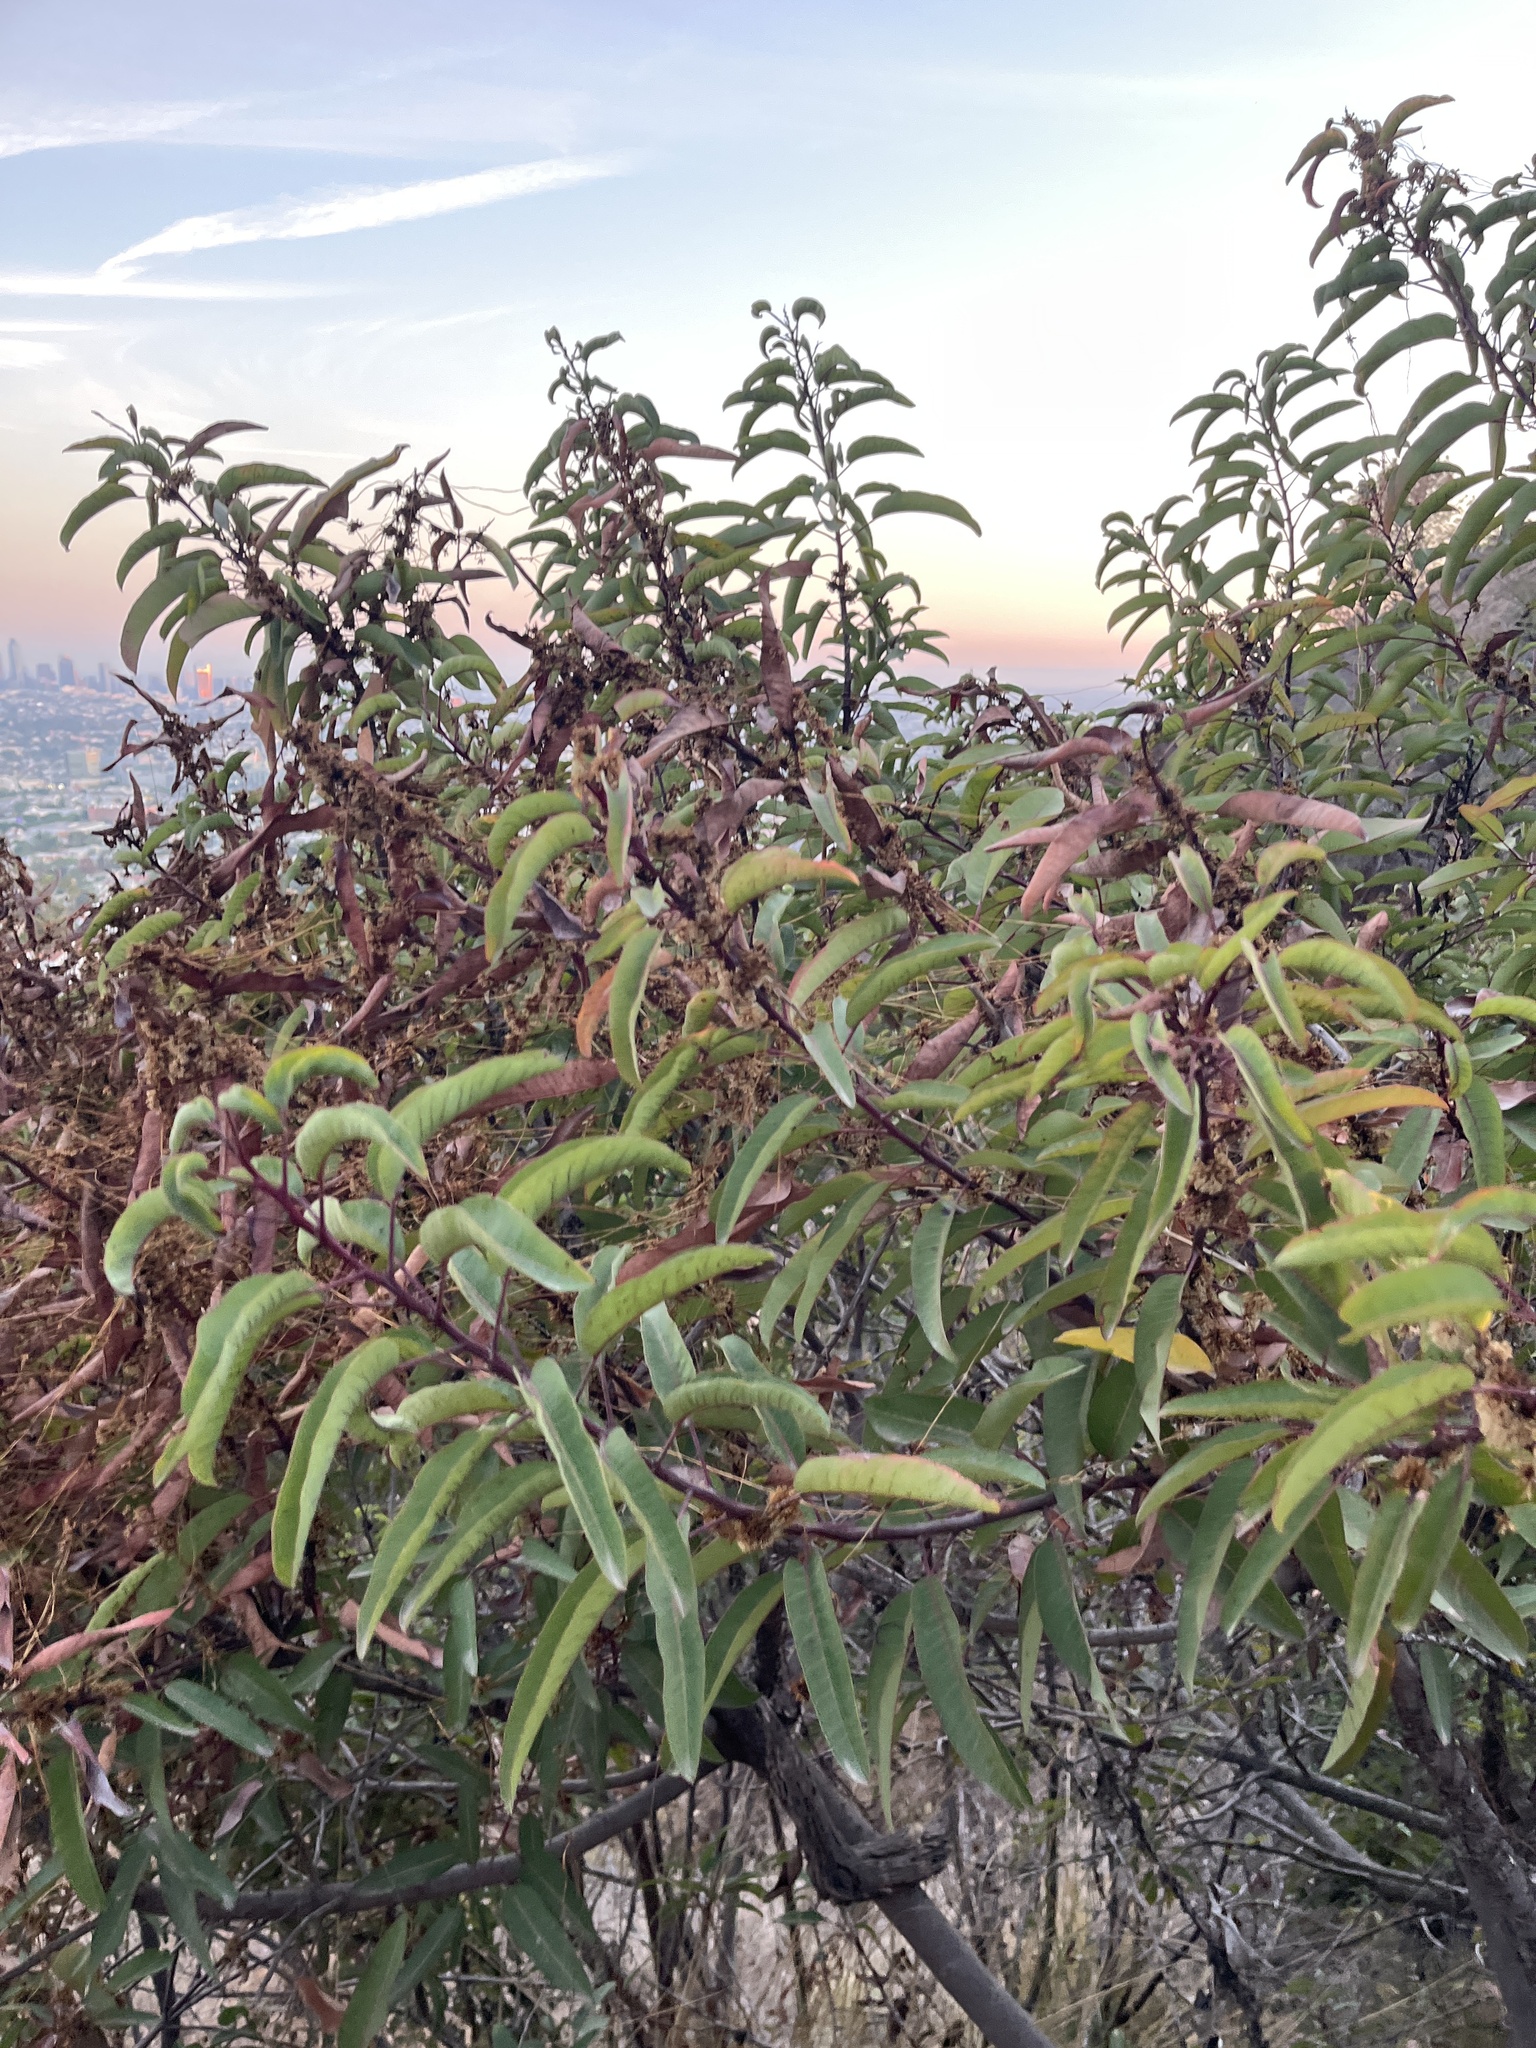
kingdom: Plantae
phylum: Tracheophyta
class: Magnoliopsida
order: Sapindales
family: Anacardiaceae
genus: Malosma
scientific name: Malosma laurina
